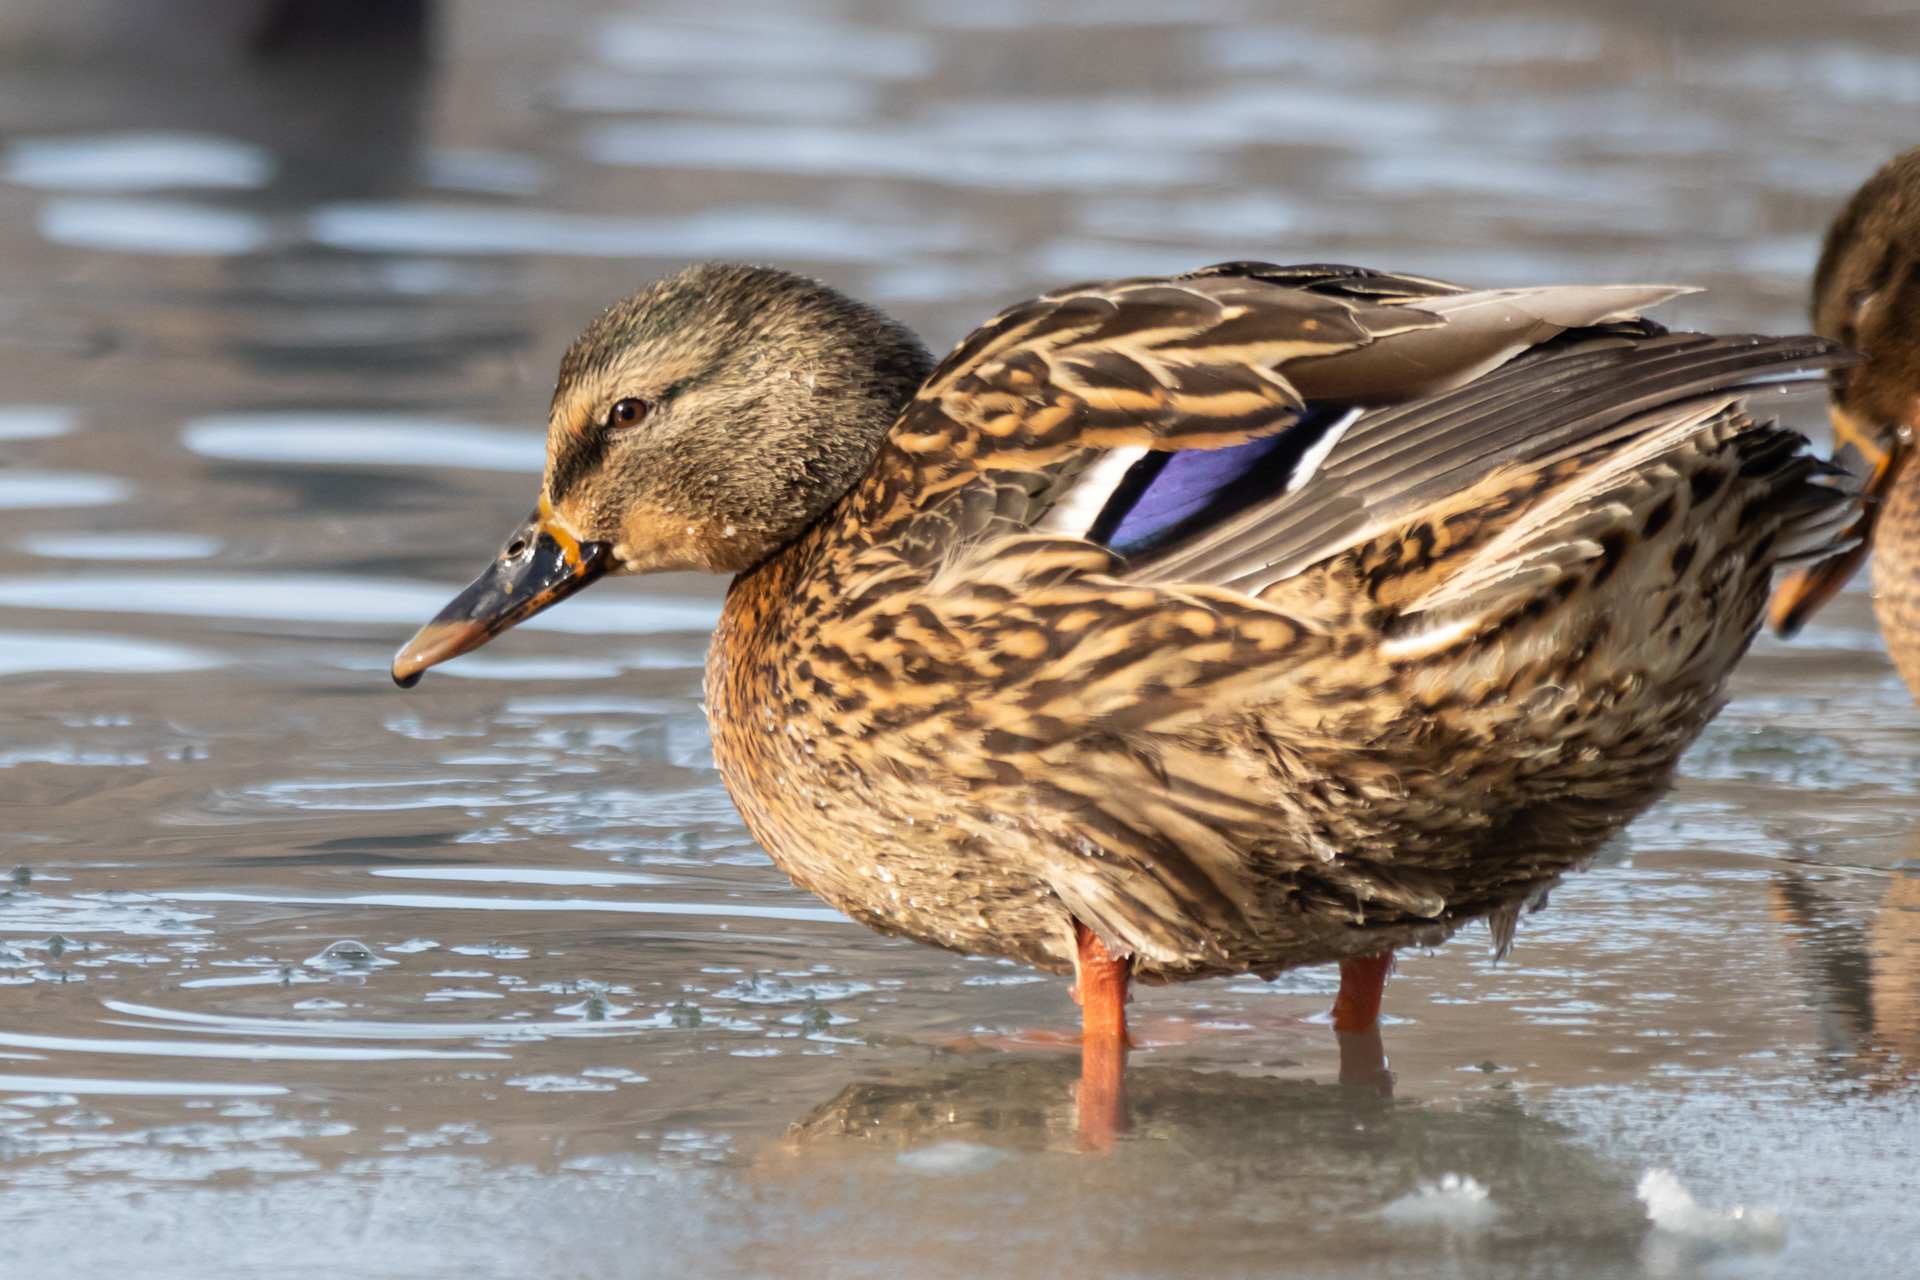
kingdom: Animalia
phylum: Chordata
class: Aves
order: Anseriformes
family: Anatidae
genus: Anas
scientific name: Anas platyrhynchos
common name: Mallard
